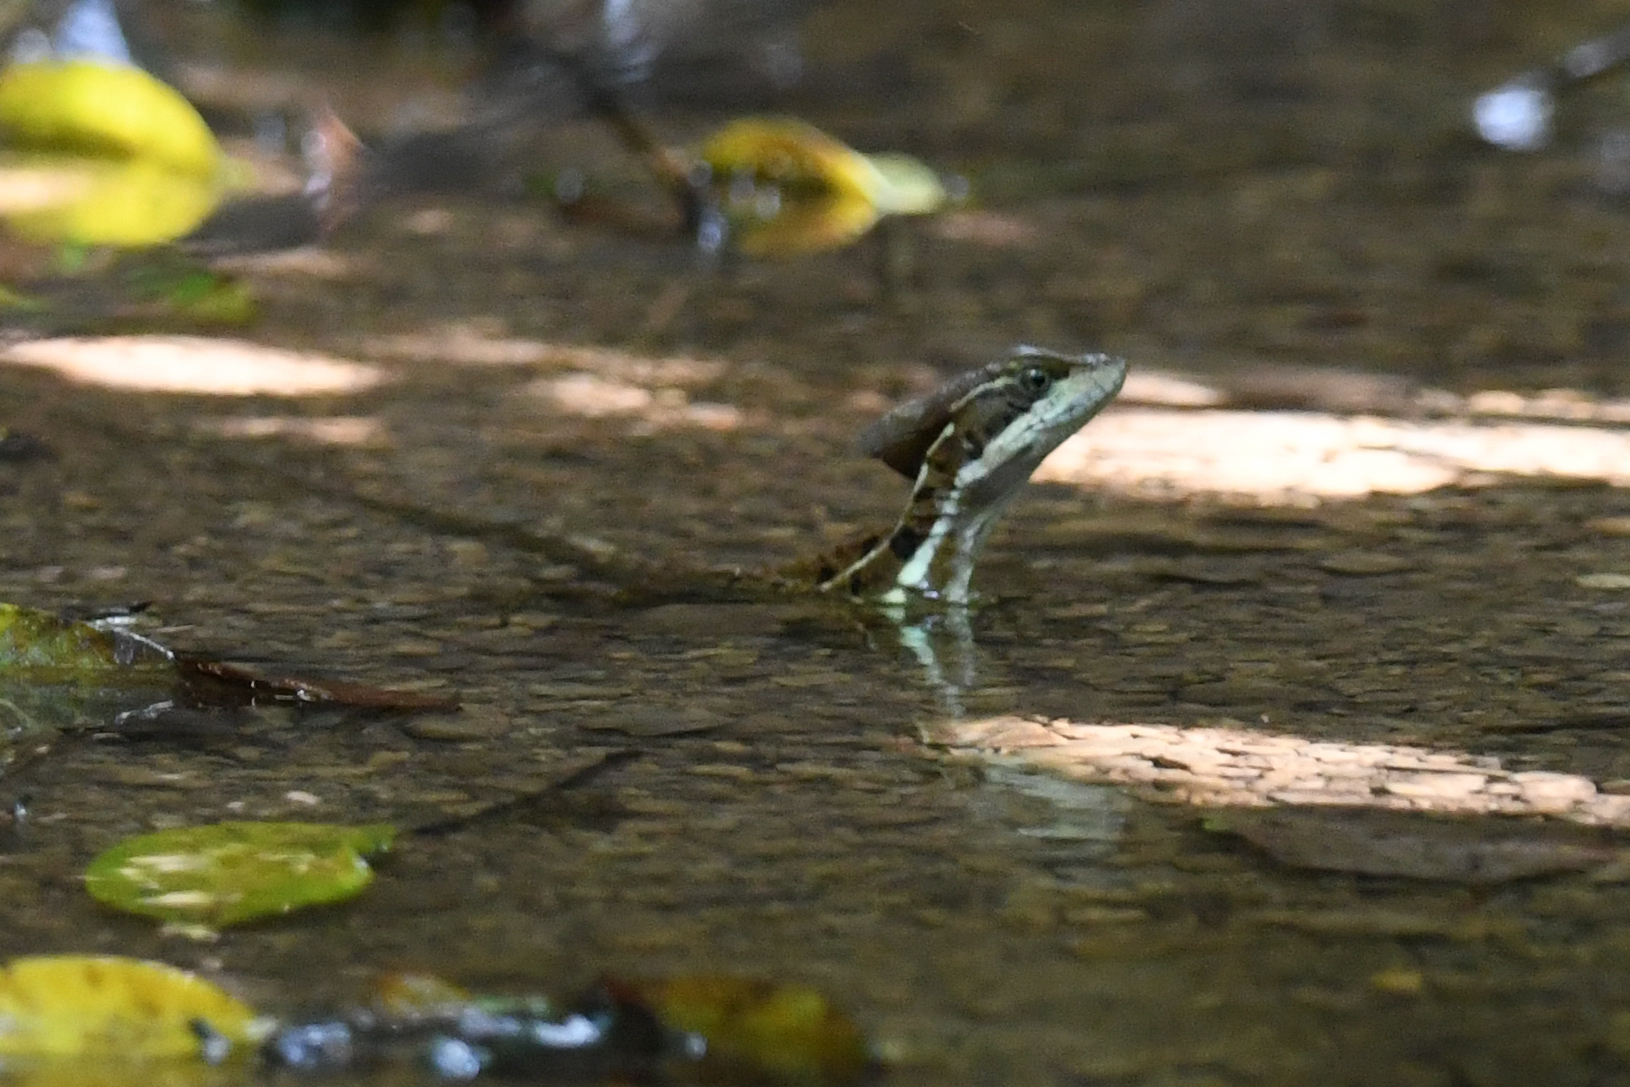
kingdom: Animalia
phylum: Chordata
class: Squamata
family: Corytophanidae
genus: Basiliscus
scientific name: Basiliscus basiliscus
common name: Common basilisk
